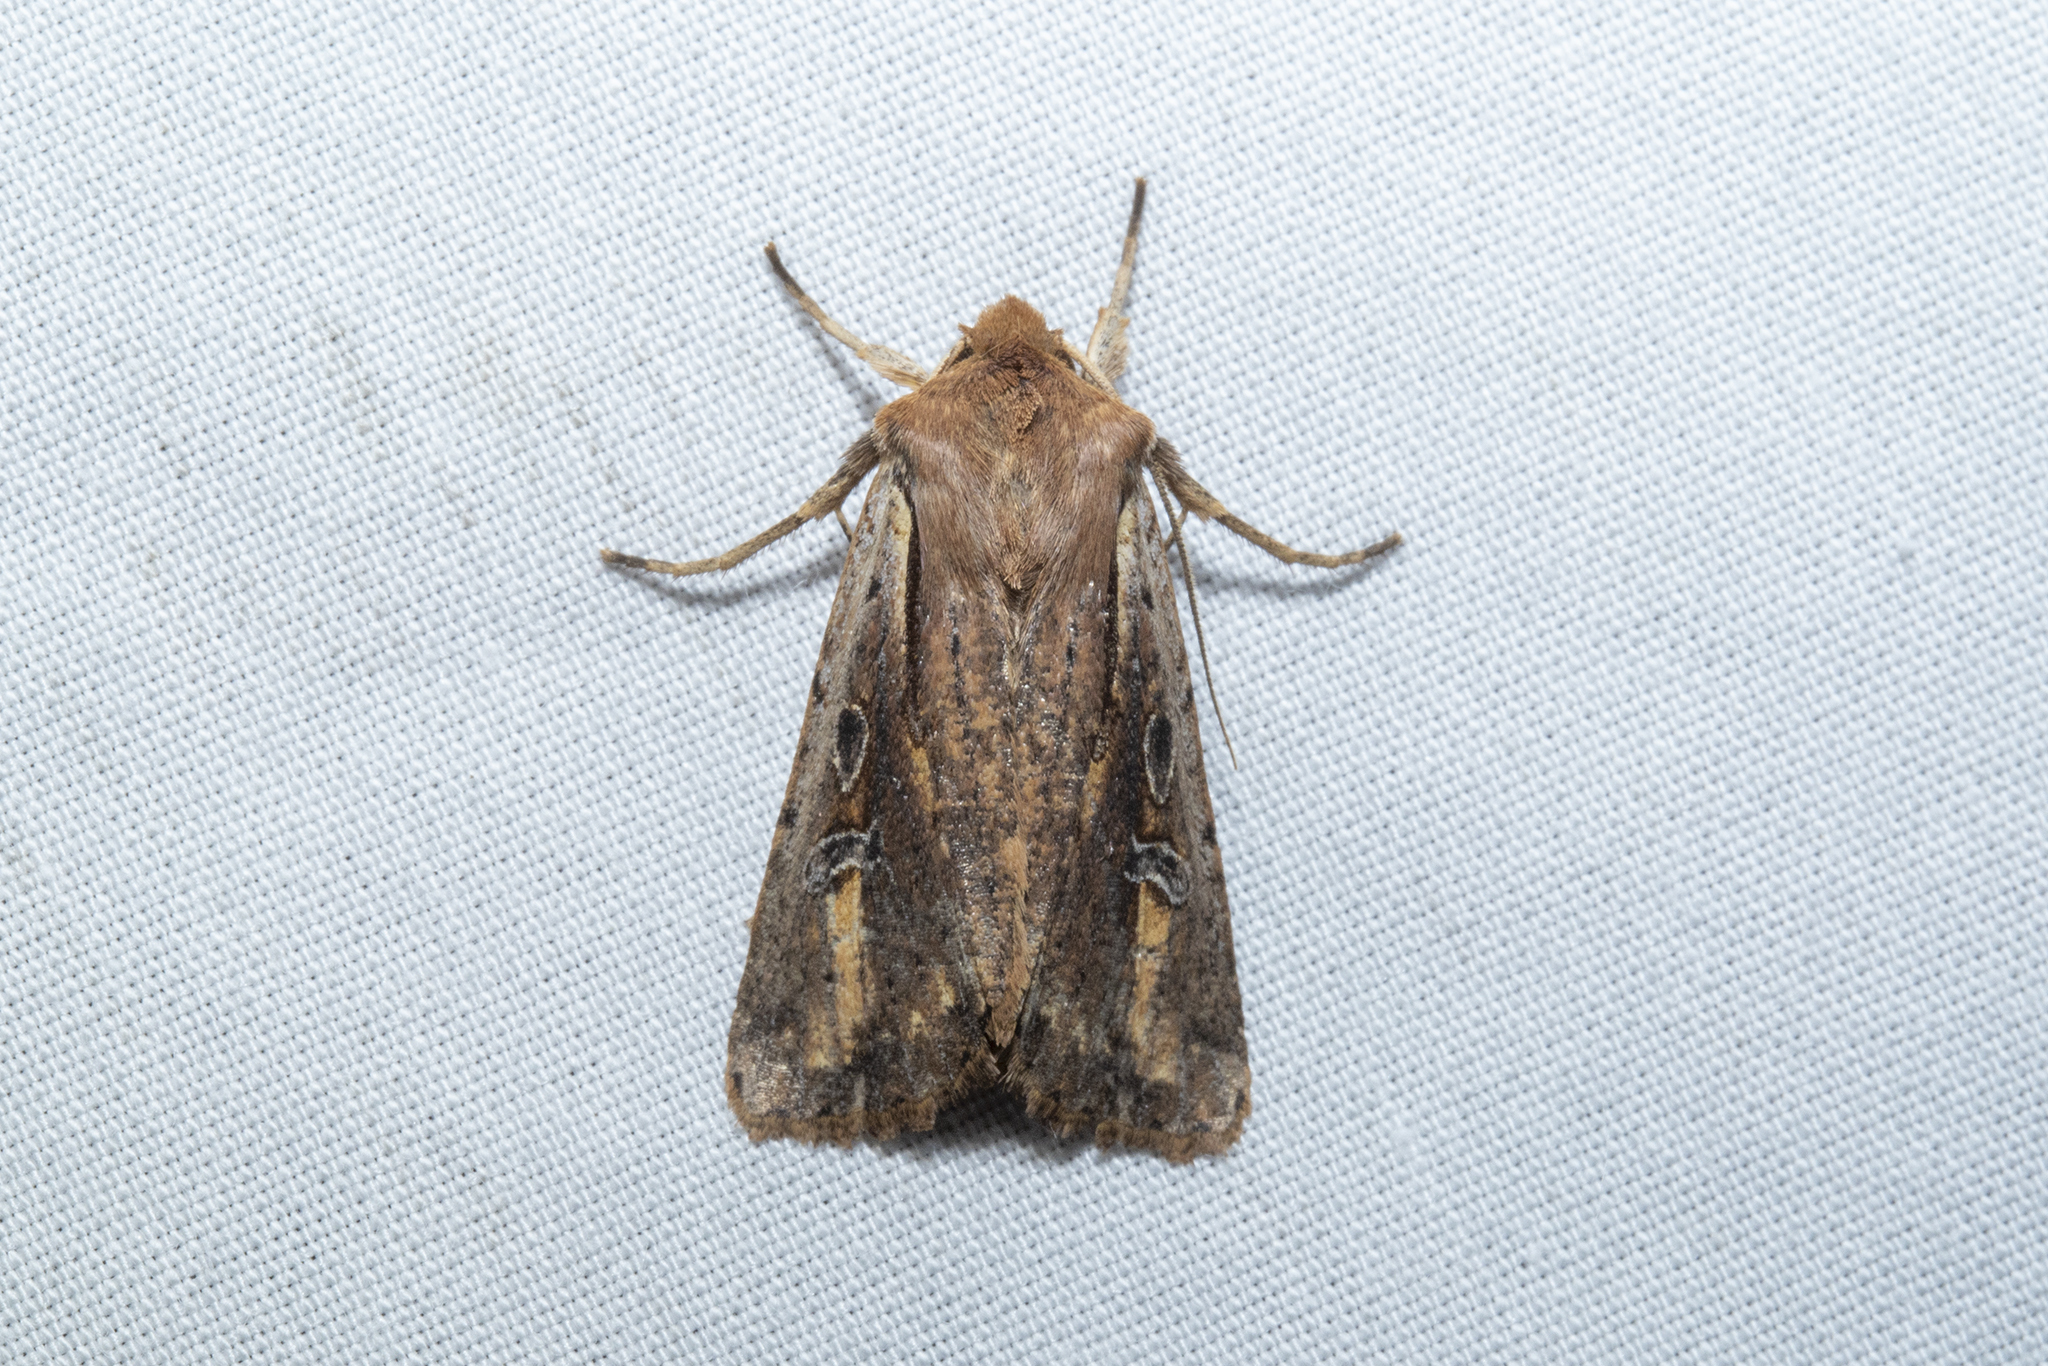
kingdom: Animalia
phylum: Arthropoda
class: Insecta
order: Lepidoptera
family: Noctuidae
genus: Ichneutica
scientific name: Ichneutica atristriga
